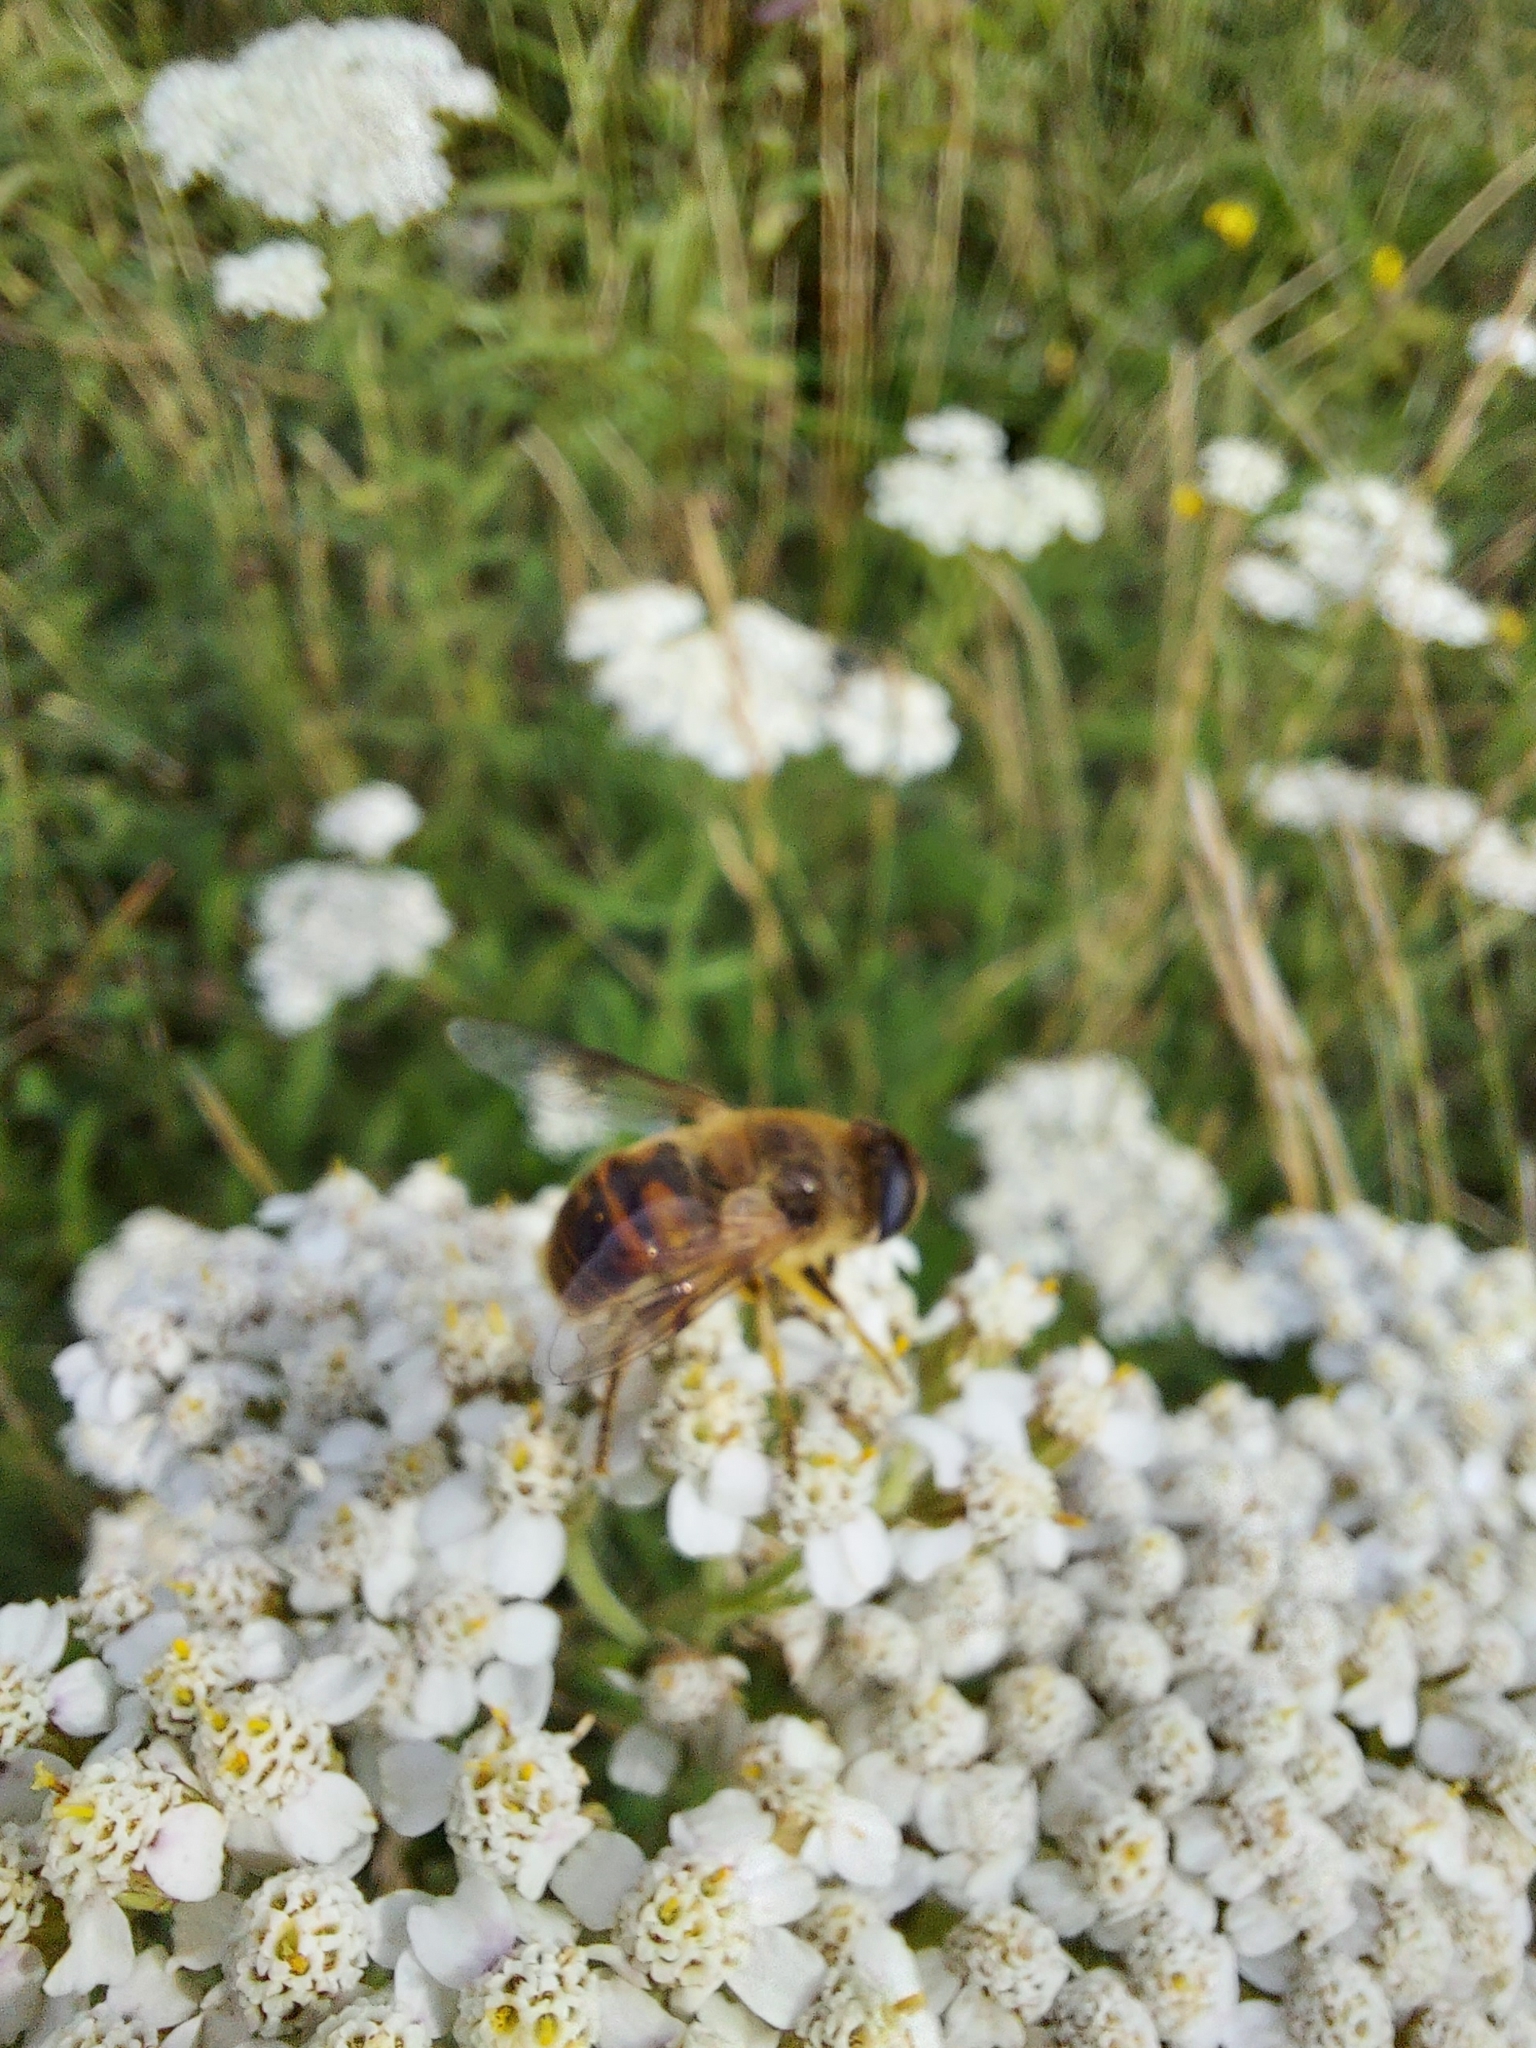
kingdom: Animalia
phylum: Arthropoda
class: Insecta
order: Diptera
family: Syrphidae
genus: Eristalis
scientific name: Eristalis tenax
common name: Drone fly
